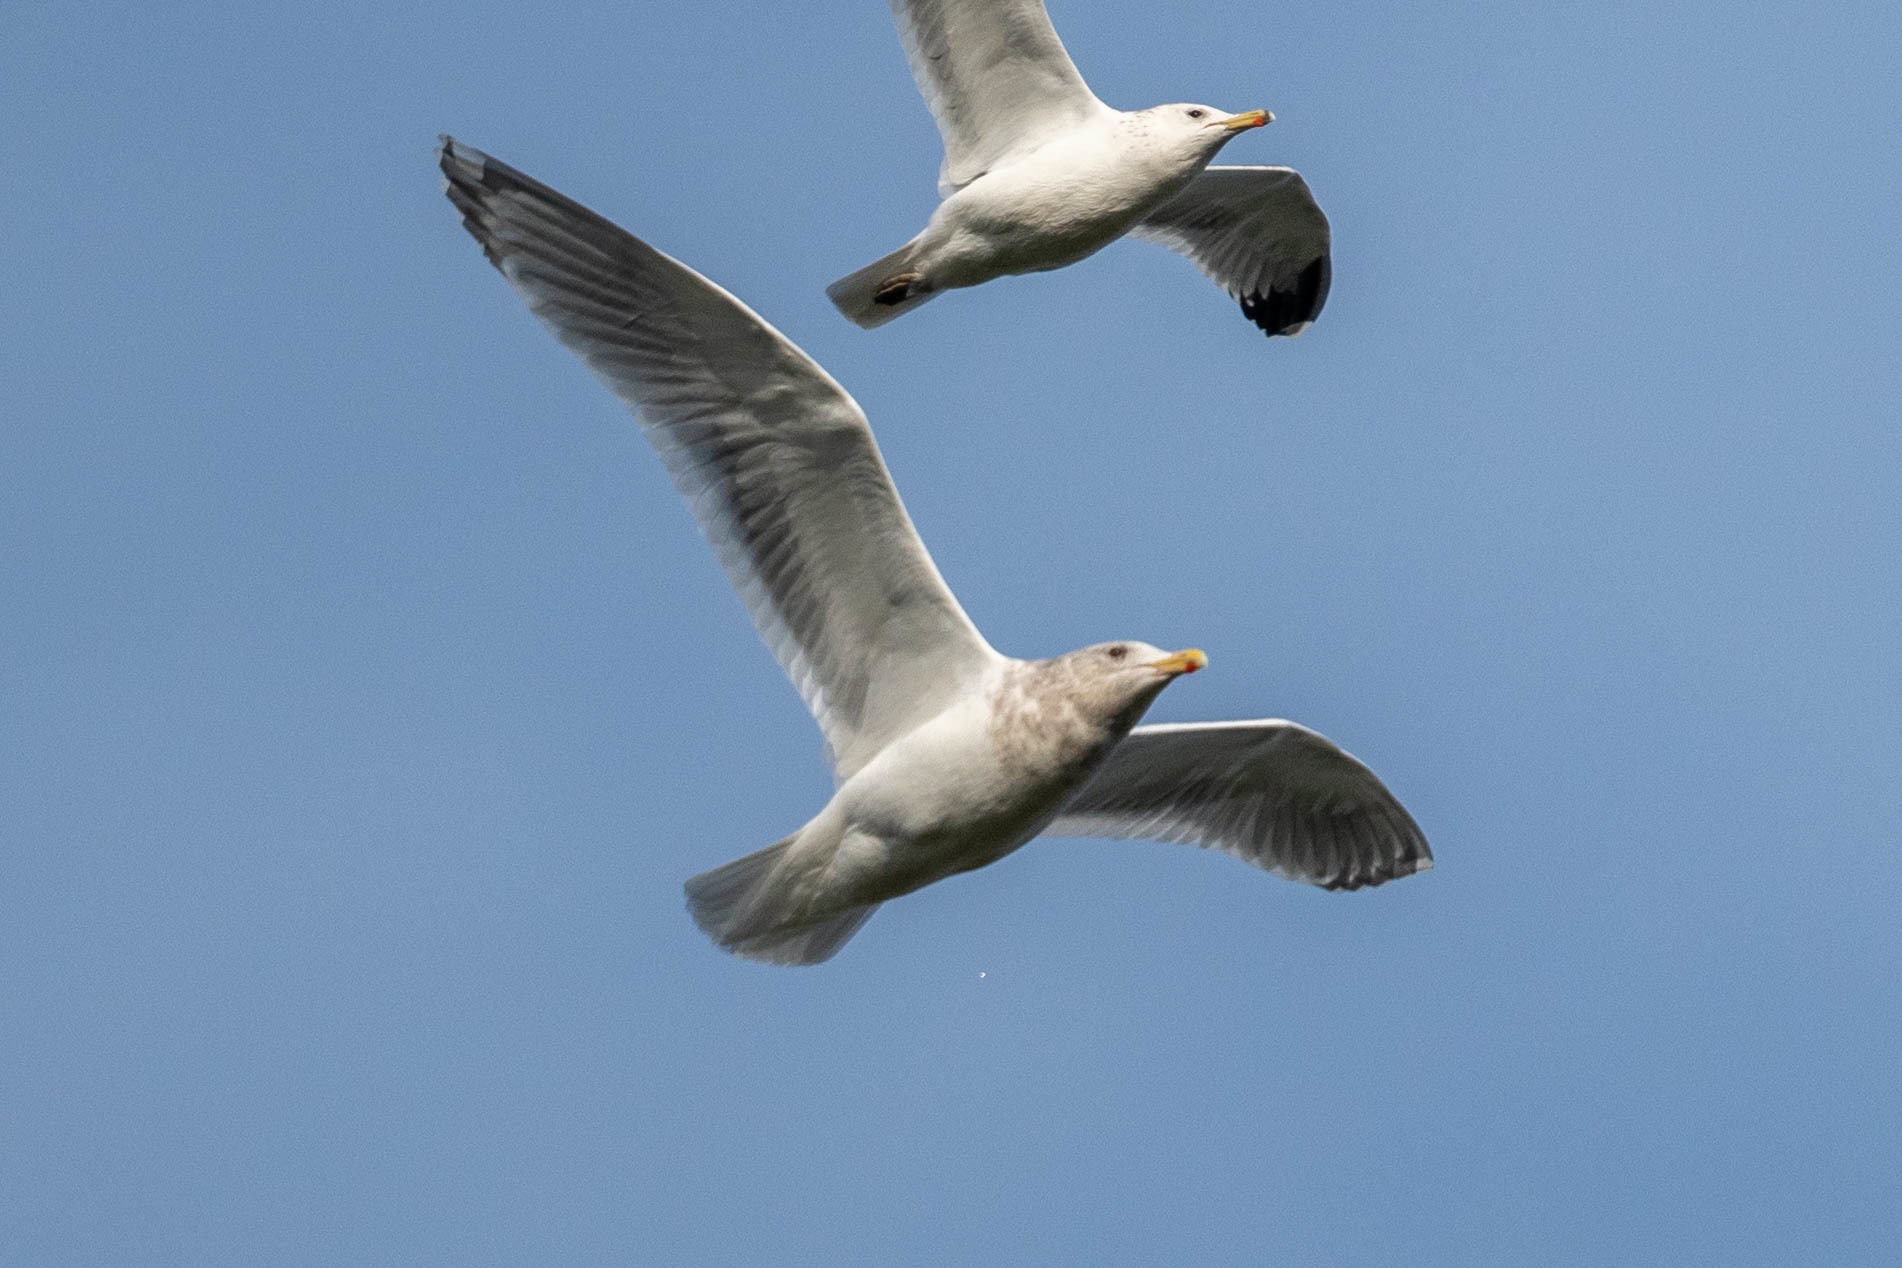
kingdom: Animalia
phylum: Chordata
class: Aves
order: Charadriiformes
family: Laridae
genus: Larus
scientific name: Larus
